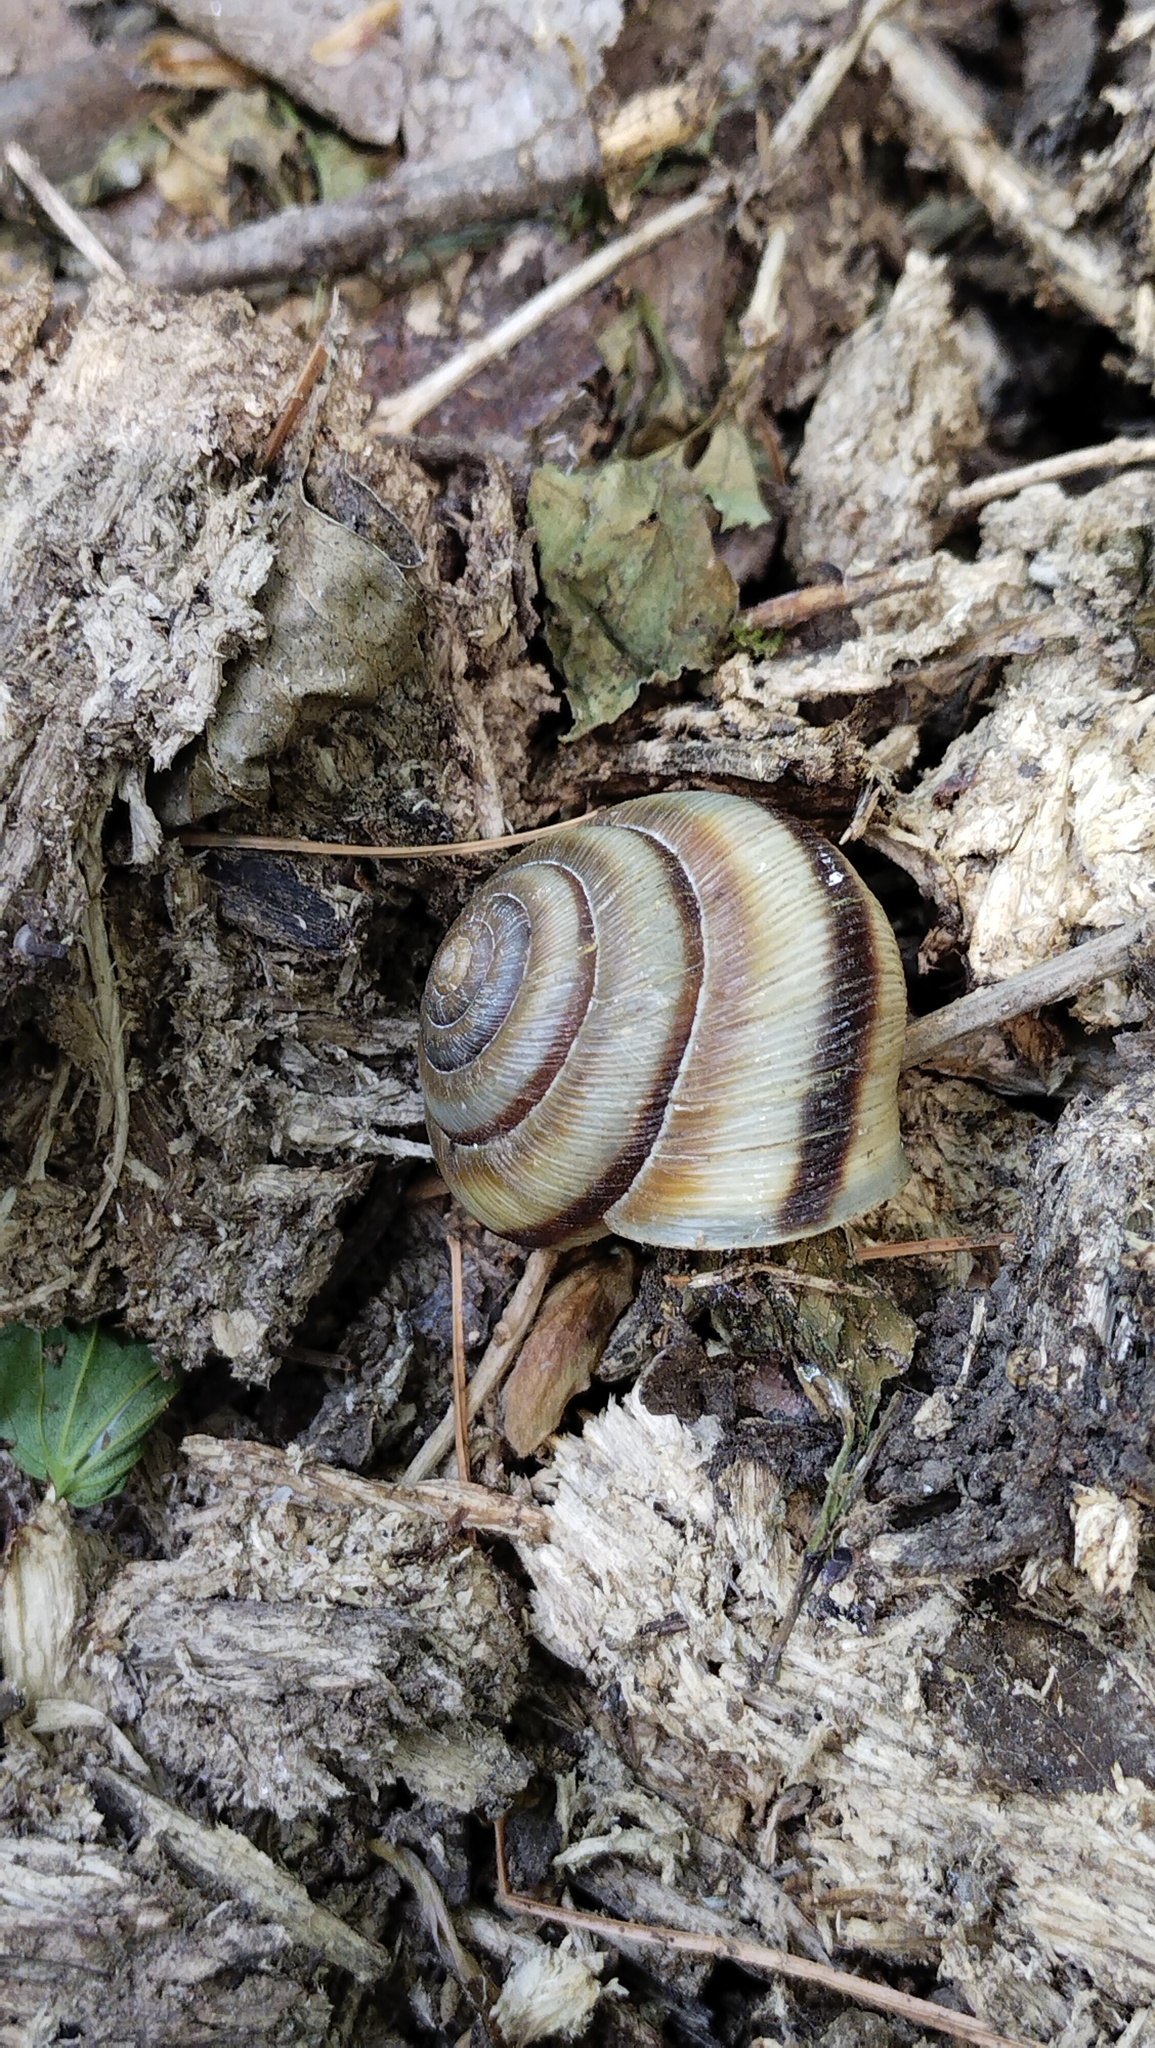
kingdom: Animalia
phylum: Mollusca
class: Gastropoda
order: Stylommatophora
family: Camaenidae
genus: Karaftohelix
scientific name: Karaftohelix maackii
